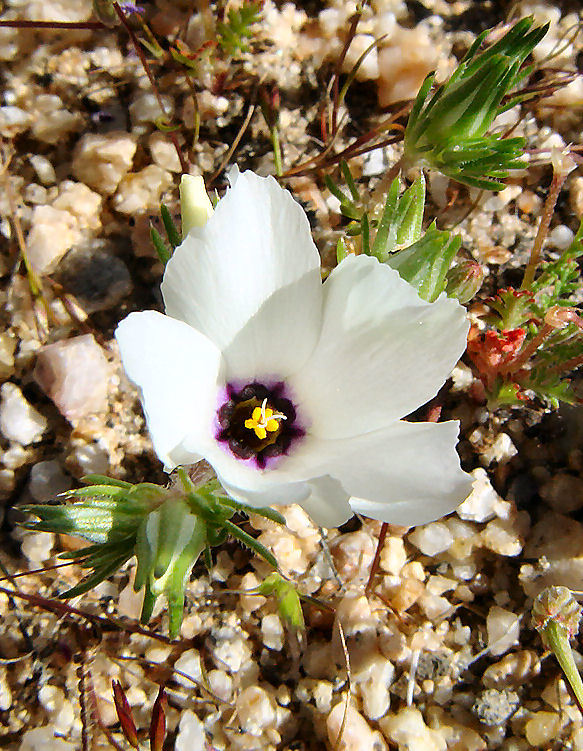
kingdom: Plantae
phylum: Tracheophyta
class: Magnoliopsida
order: Ericales
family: Polemoniaceae
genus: Linanthus
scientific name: Linanthus parryae
